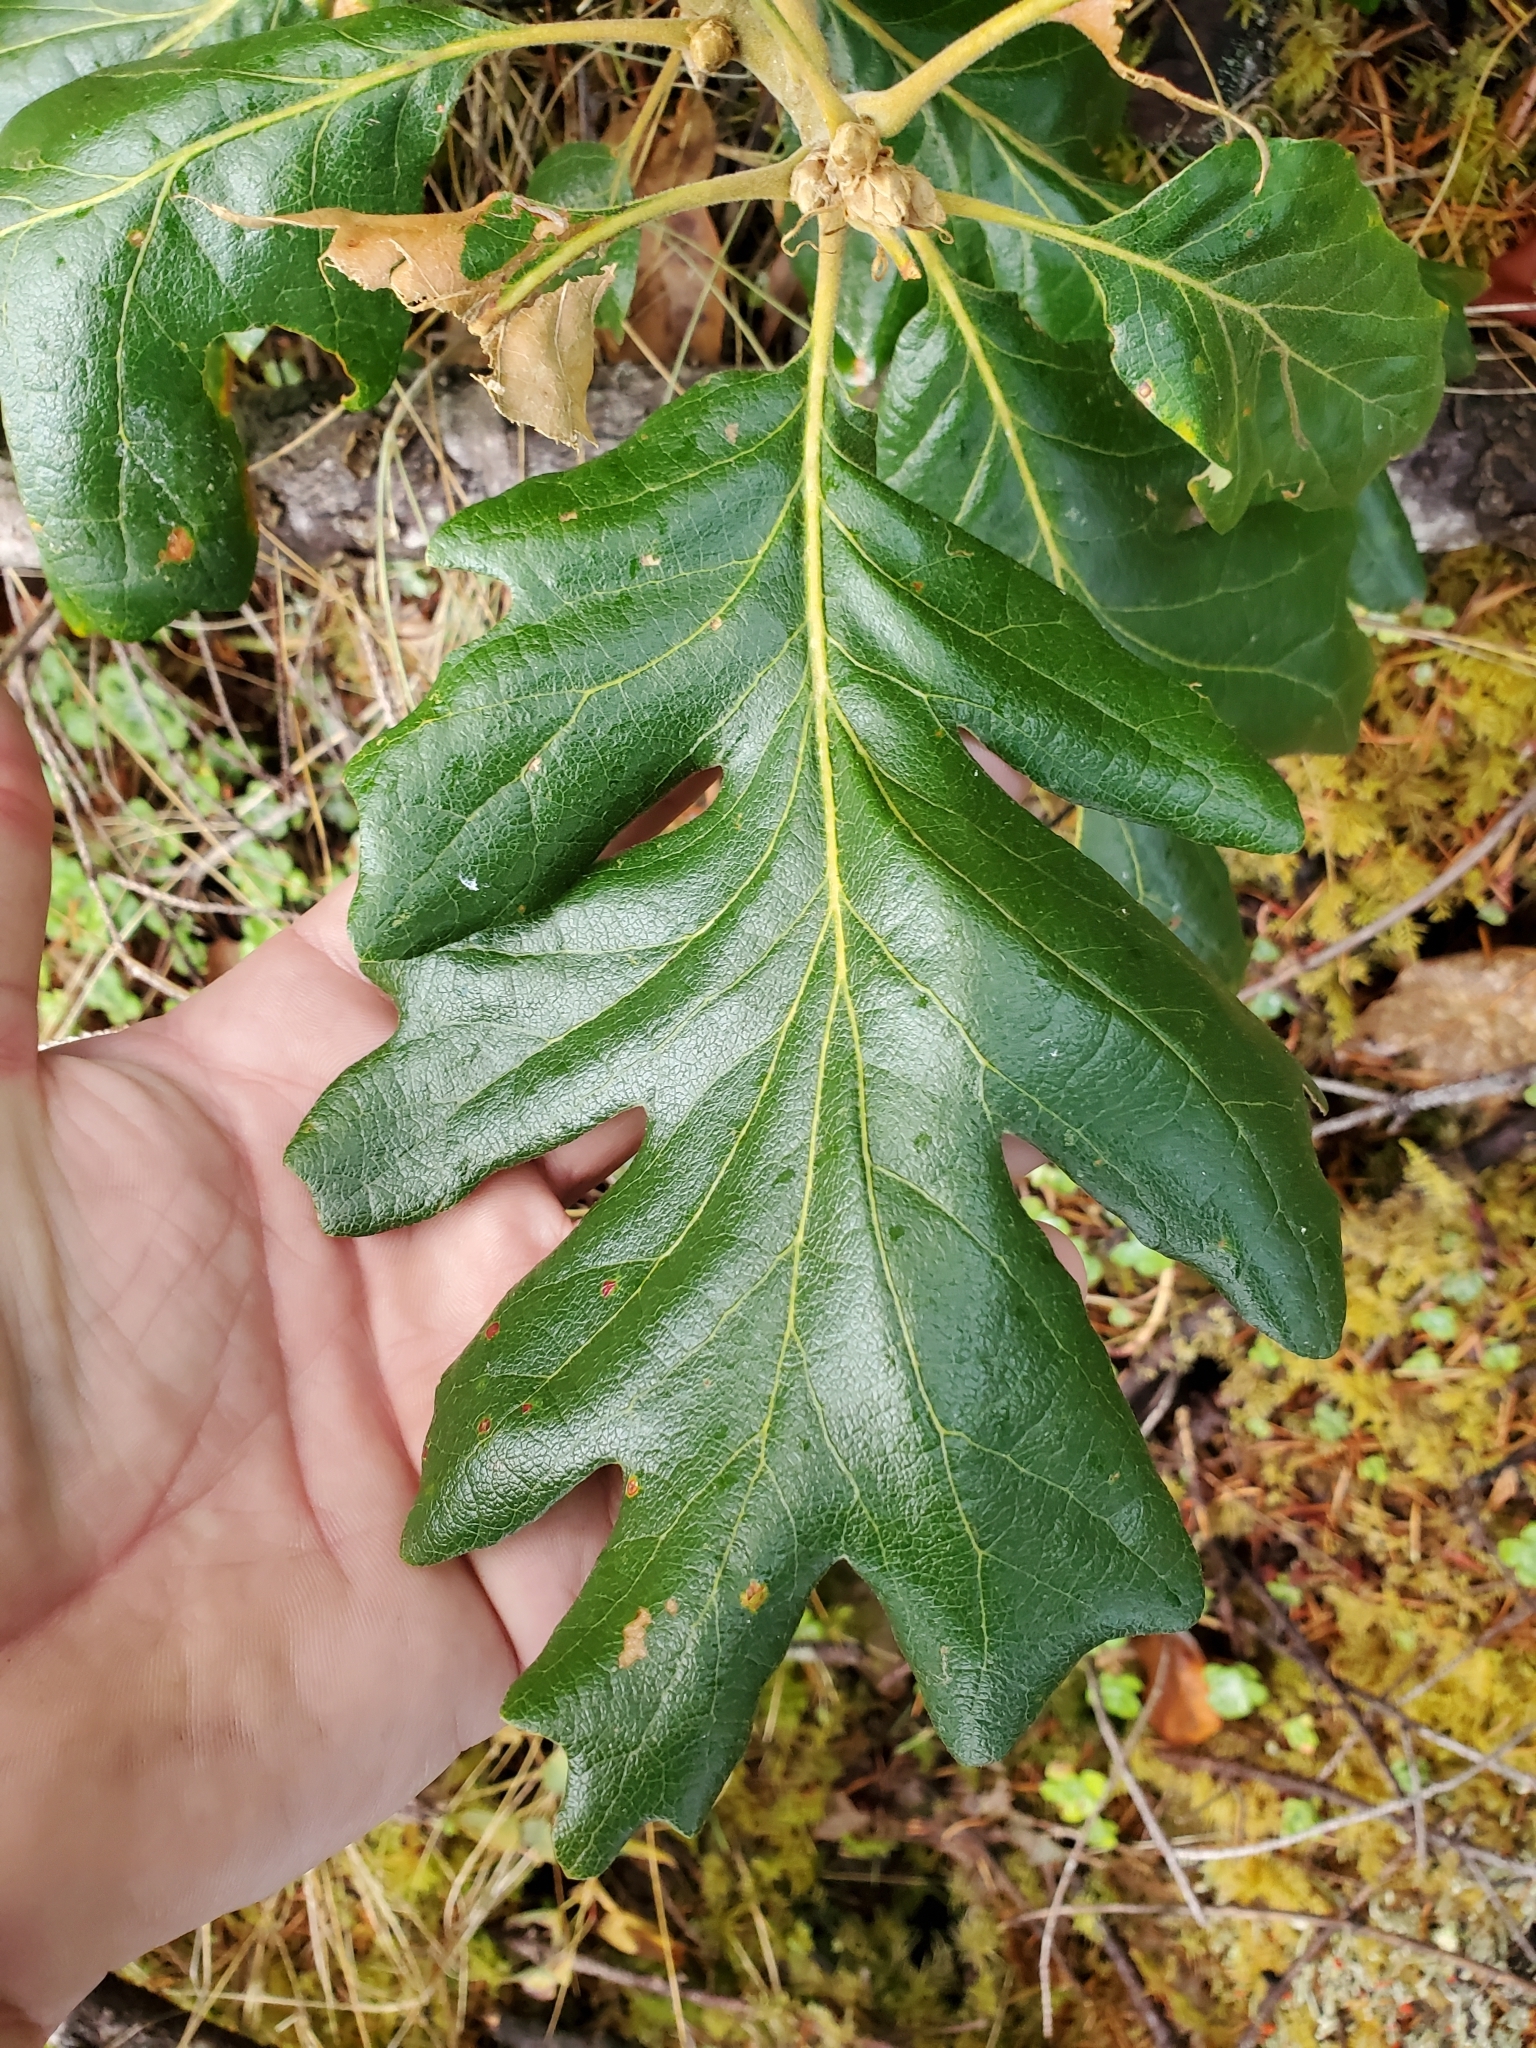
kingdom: Plantae
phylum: Tracheophyta
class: Magnoliopsida
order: Fagales
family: Fagaceae
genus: Quercus
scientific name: Quercus garryana
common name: Garry oak
